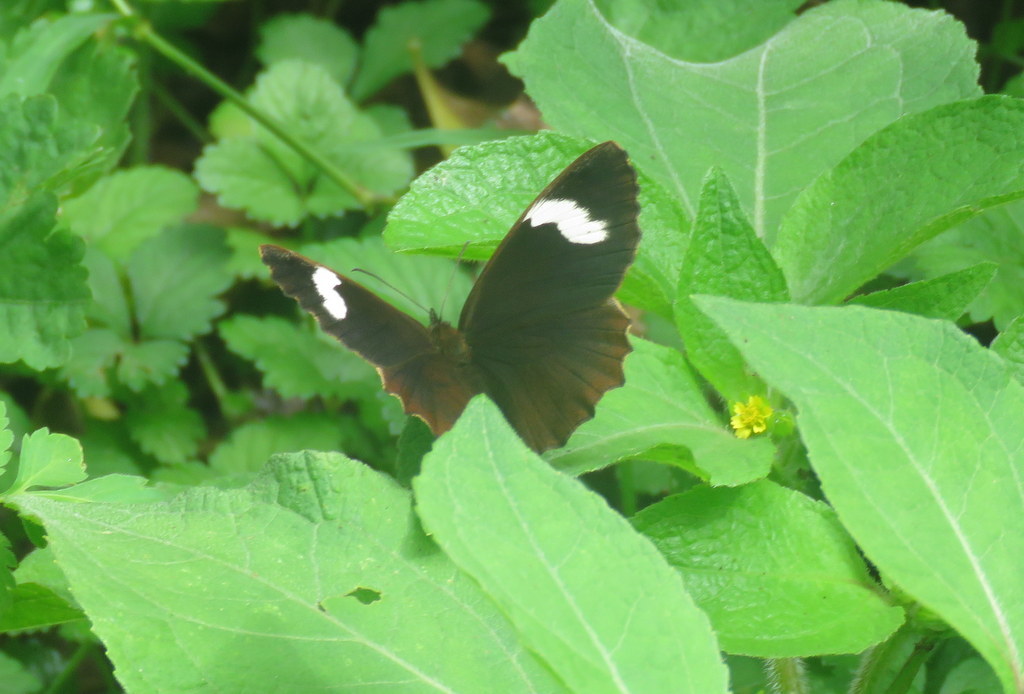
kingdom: Animalia
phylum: Arthropoda
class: Insecta
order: Lepidoptera
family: Nymphalidae
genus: Pedaliodes
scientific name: Pedaliodes porina
